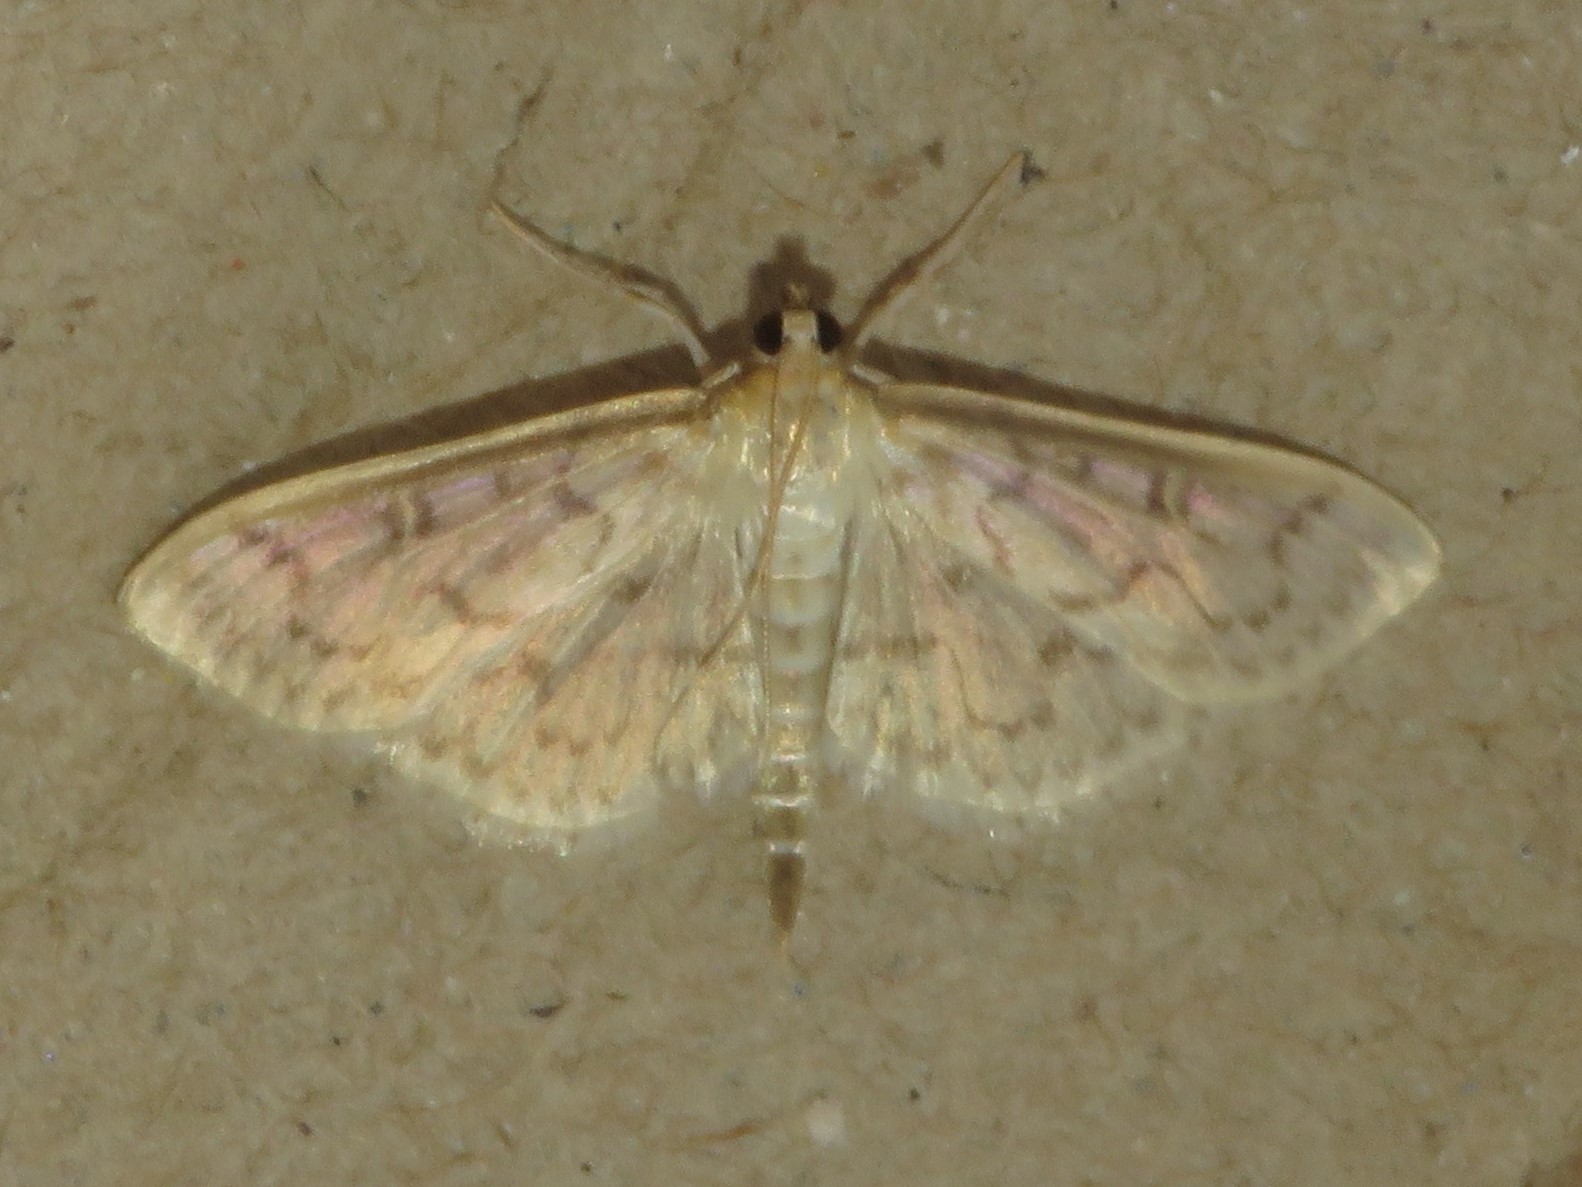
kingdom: Animalia
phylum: Arthropoda
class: Insecta
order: Lepidoptera
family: Crambidae
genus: Herpetogramma
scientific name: Herpetogramma aquilonalis
